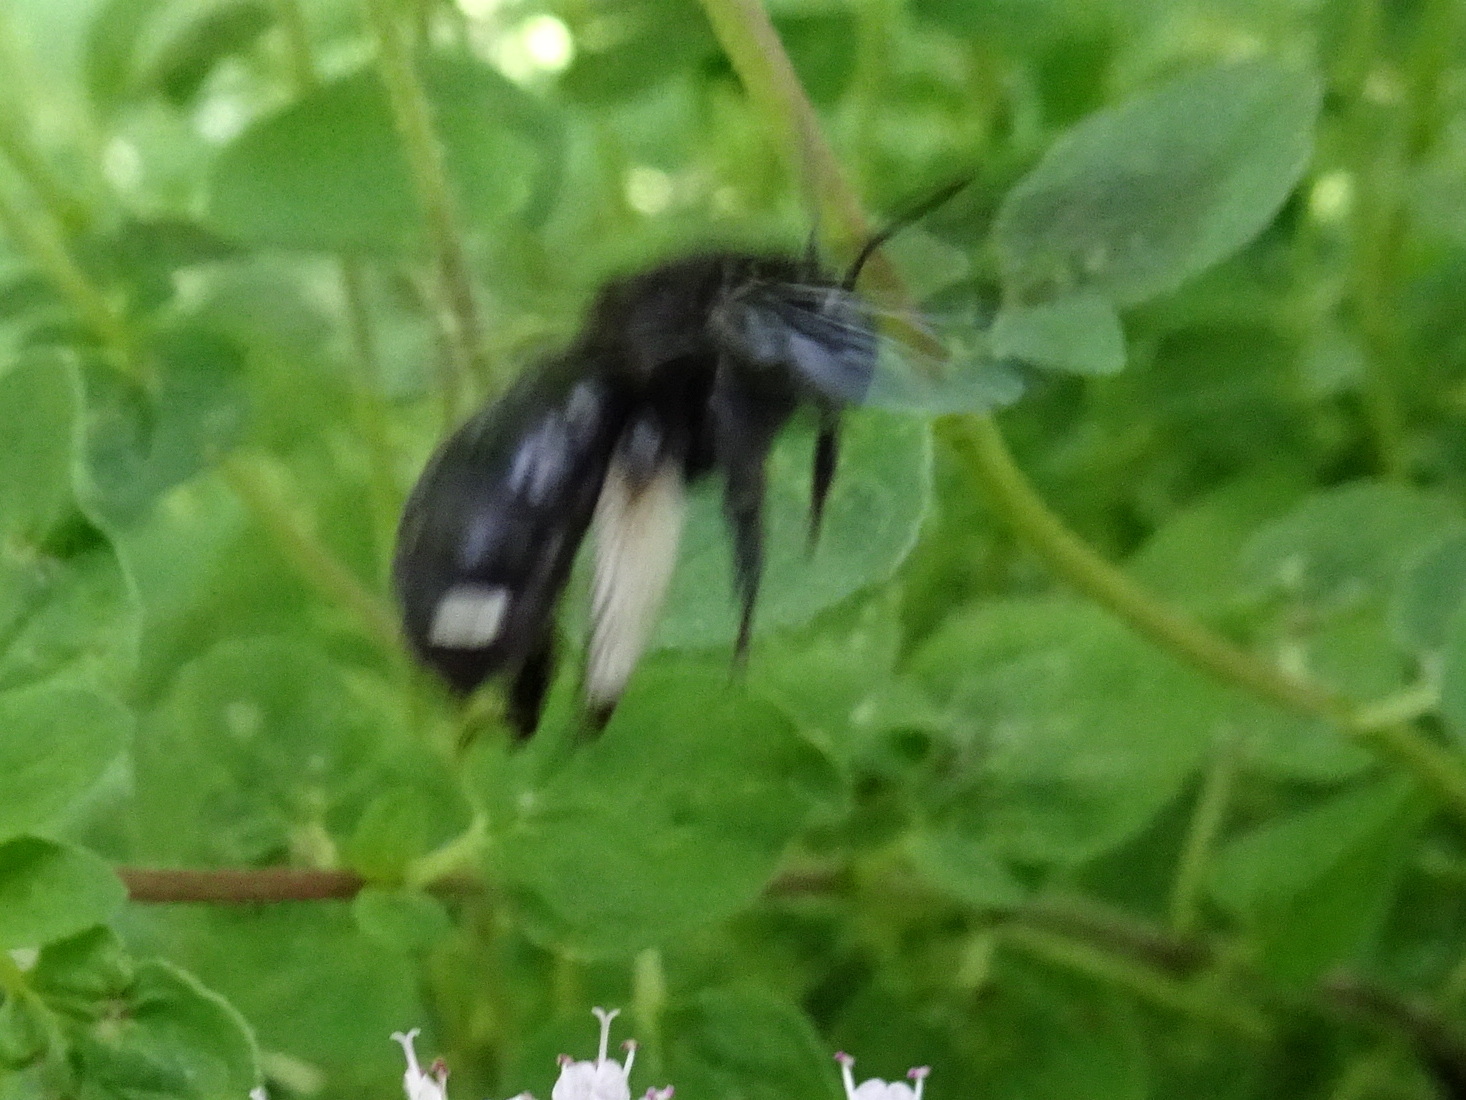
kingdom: Animalia
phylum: Arthropoda
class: Insecta
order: Hymenoptera
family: Apidae
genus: Melissodes
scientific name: Melissodes bimaculatus
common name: Two-spotted long-horned bee
